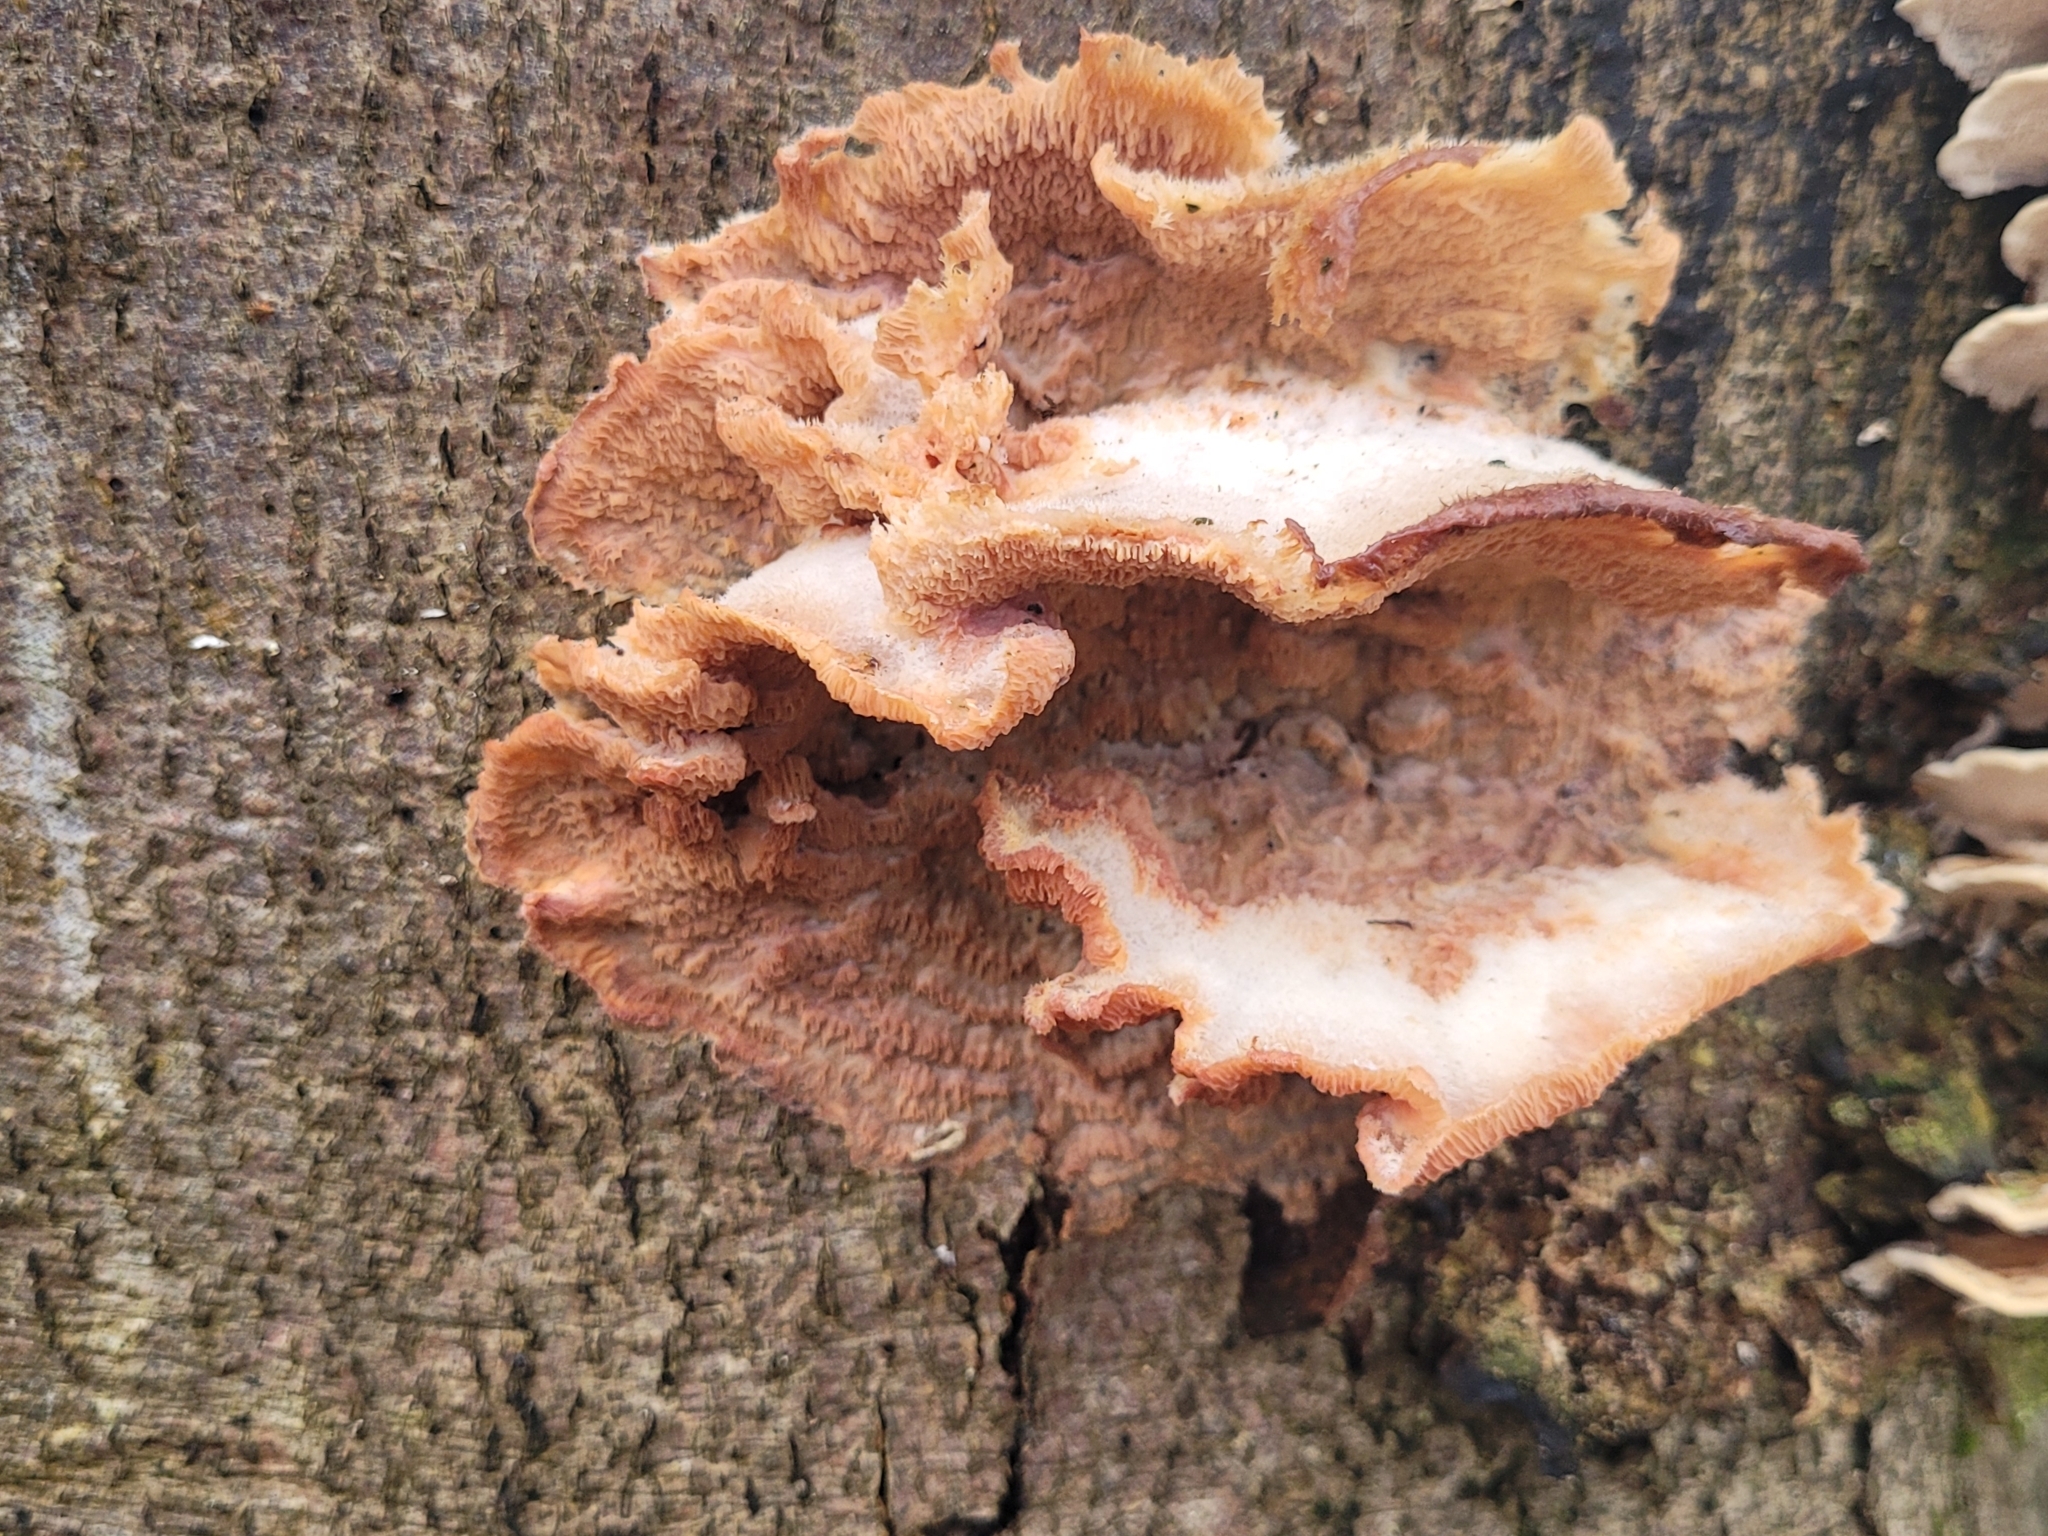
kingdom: Fungi
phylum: Basidiomycota
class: Agaricomycetes
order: Polyporales
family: Meruliaceae
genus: Phlebia
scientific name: Phlebia tremellosa
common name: Jelly rot
